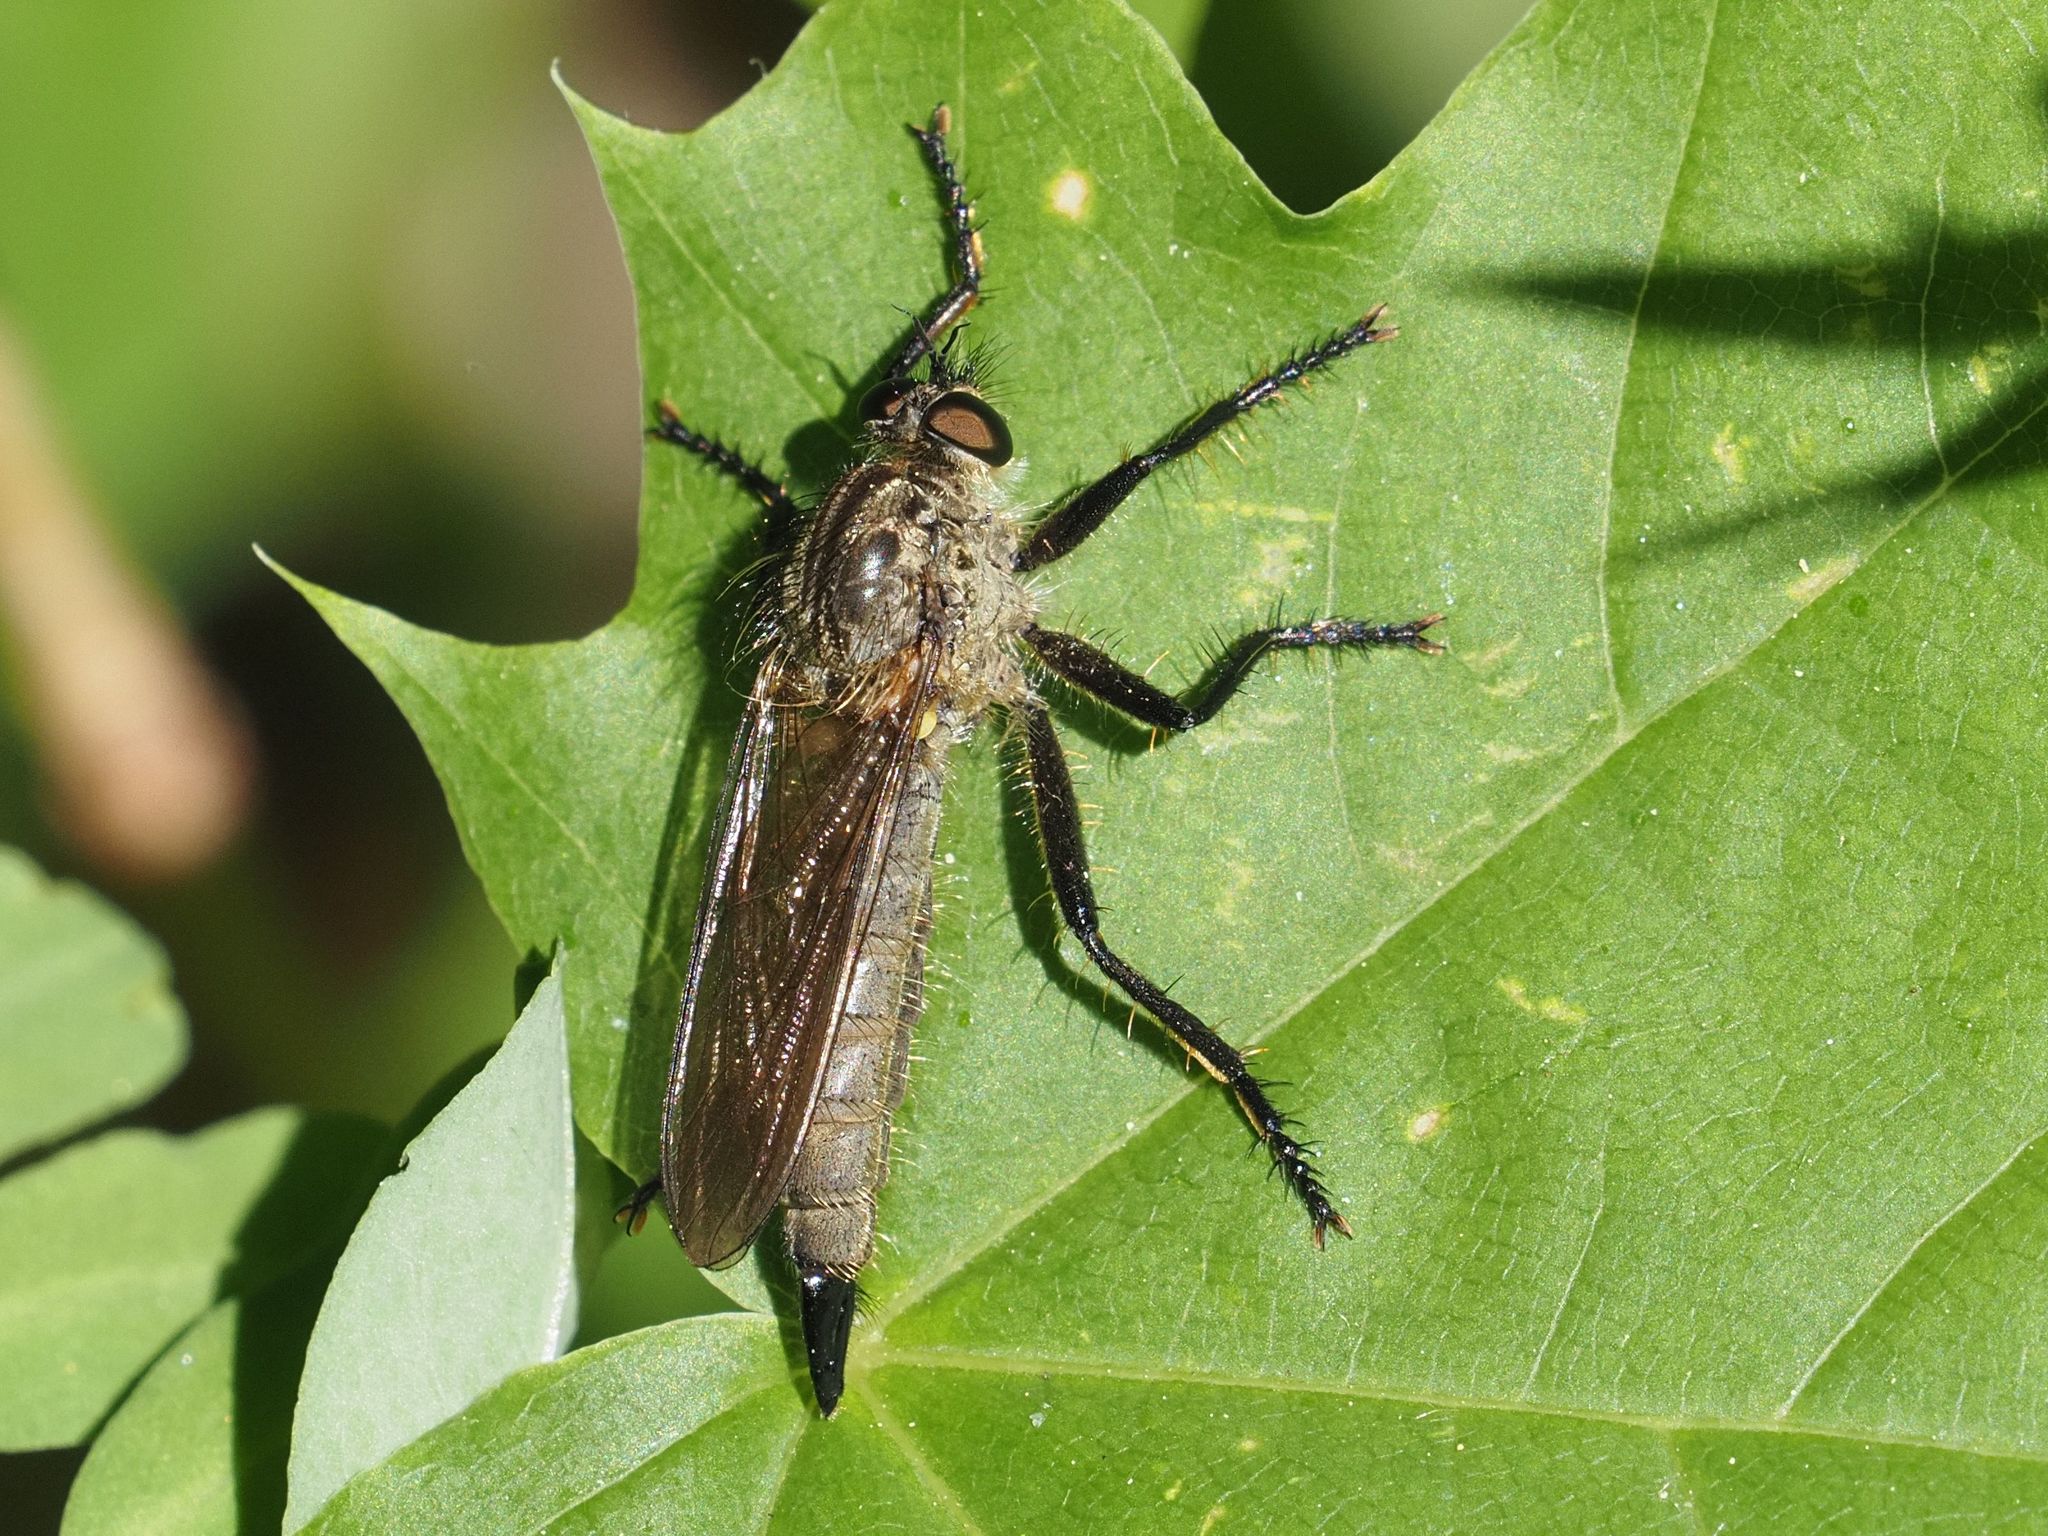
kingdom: Animalia
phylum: Arthropoda
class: Insecta
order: Diptera
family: Asilidae
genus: Didysmachus
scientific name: Didysmachus picipes
